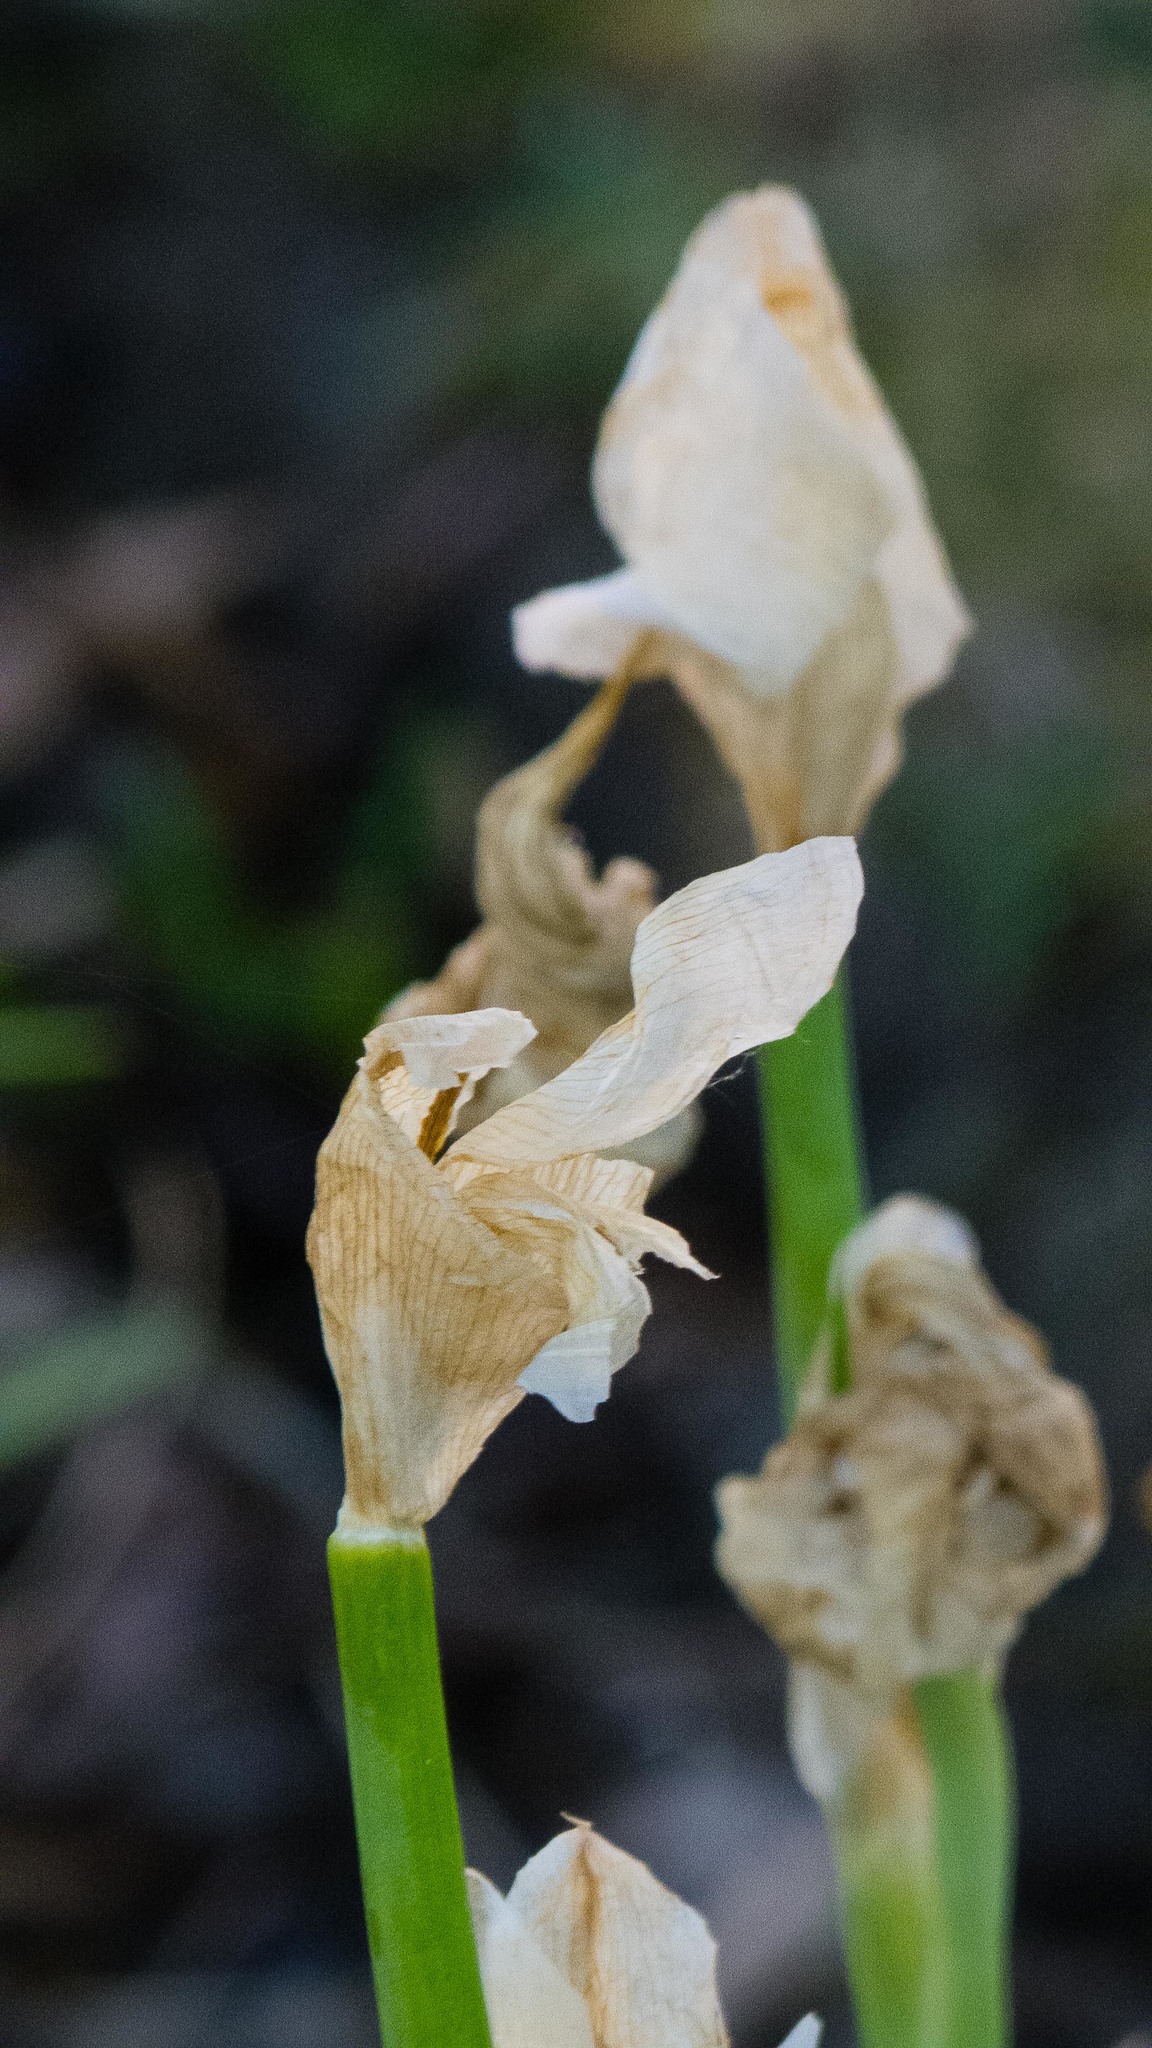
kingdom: Plantae
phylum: Tracheophyta
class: Liliopsida
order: Asparagales
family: Iridaceae
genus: Iris
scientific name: Iris germanica
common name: German iris
